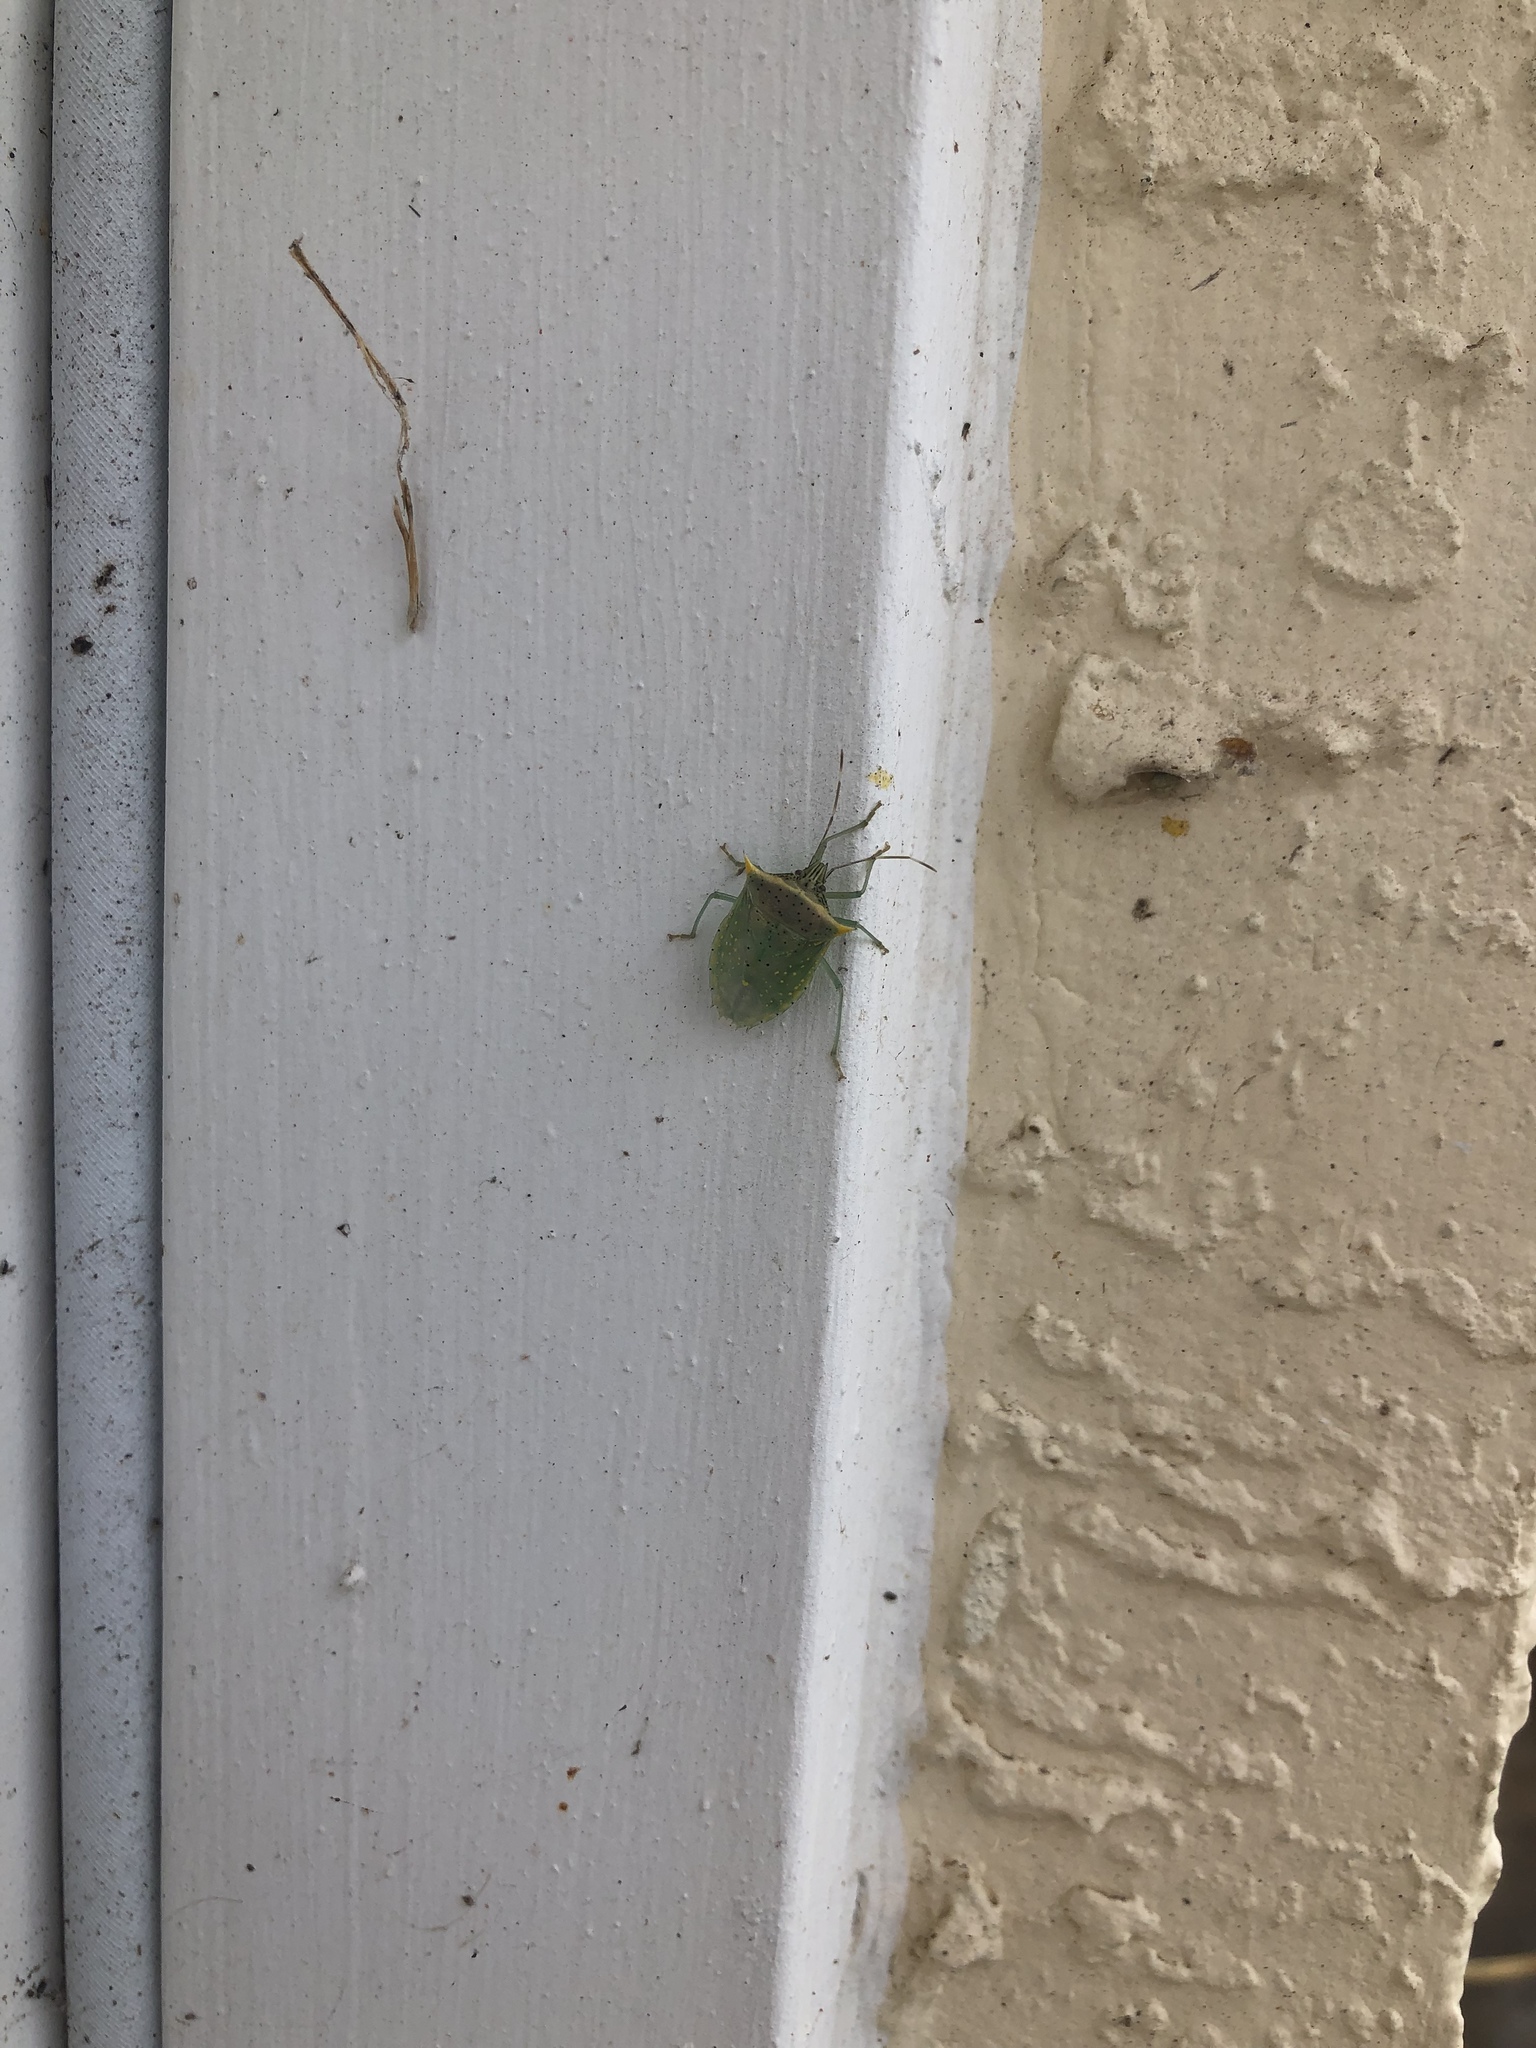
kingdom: Animalia
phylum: Arthropoda
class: Insecta
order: Hemiptera
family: Pentatomidae
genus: Arvelius
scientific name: Arvelius albopunctatus
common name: Tomato stink bug
